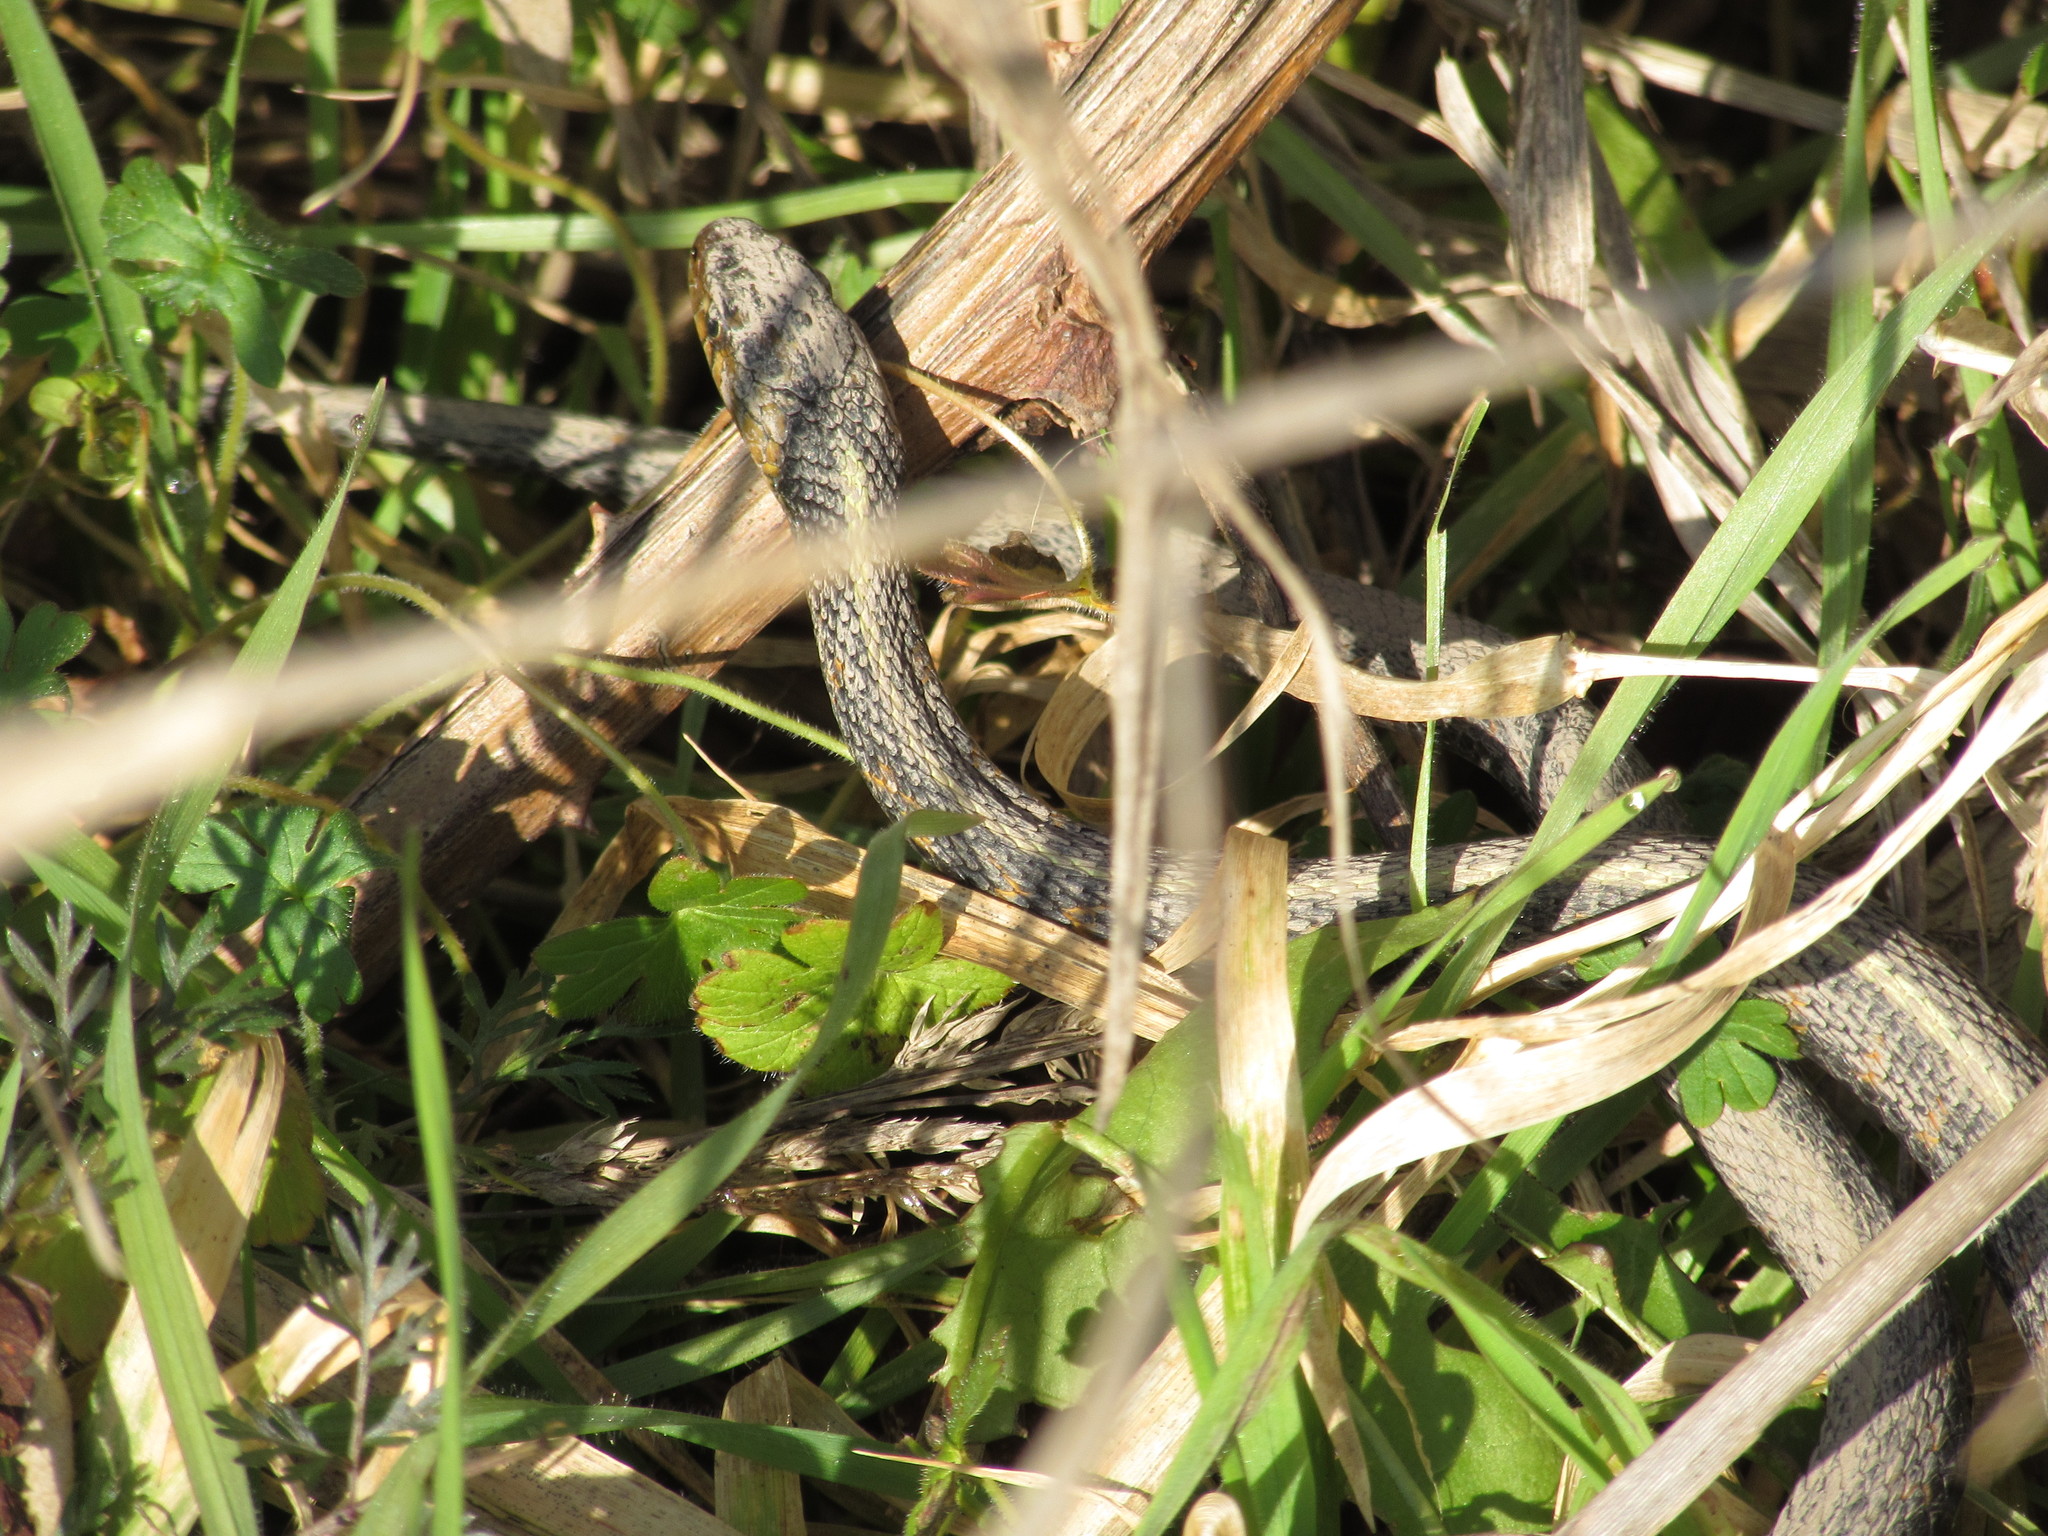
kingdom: Animalia
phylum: Chordata
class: Squamata
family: Colubridae
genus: Thamnophis
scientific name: Thamnophis sirtalis
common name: Common garter snake
